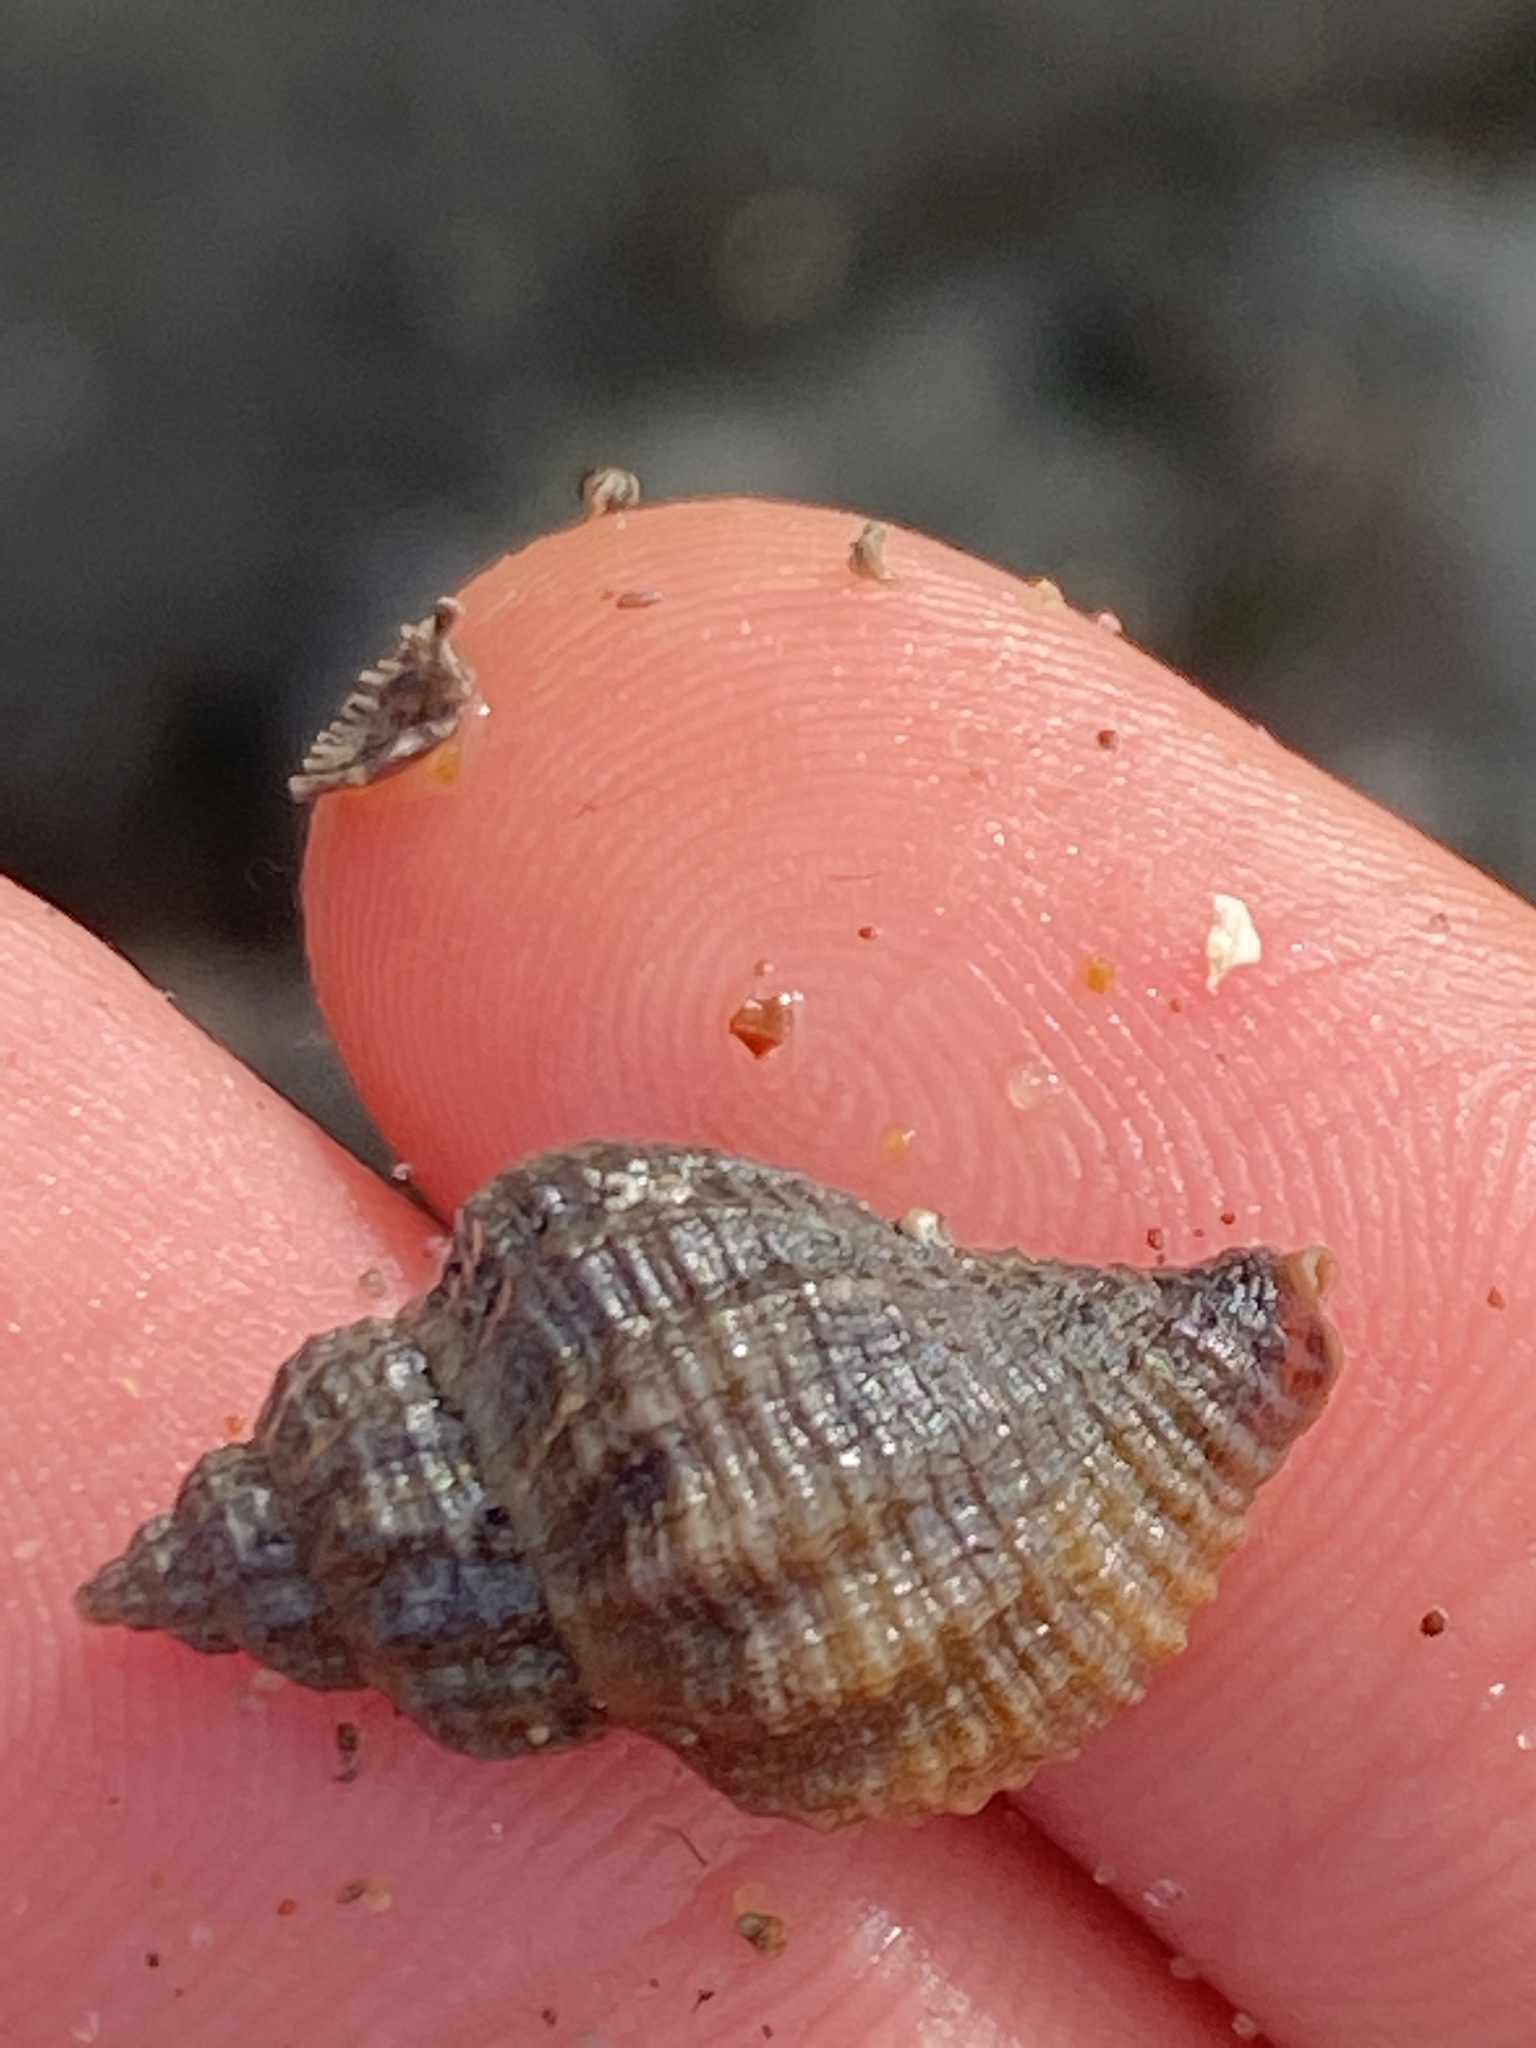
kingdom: Animalia
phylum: Mollusca
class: Gastropoda
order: Neogastropoda
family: Muricidae
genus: Urosalpinx
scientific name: Urosalpinx cinerea
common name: American sting winkle
